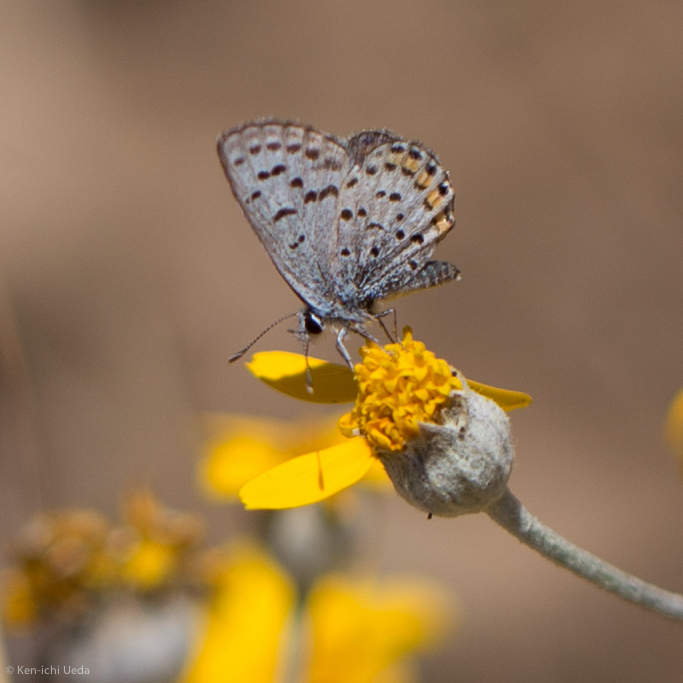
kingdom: Animalia
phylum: Arthropoda
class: Insecta
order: Lepidoptera
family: Lycaenidae
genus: Icaricia
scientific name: Icaricia acmon
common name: Acmon blue
